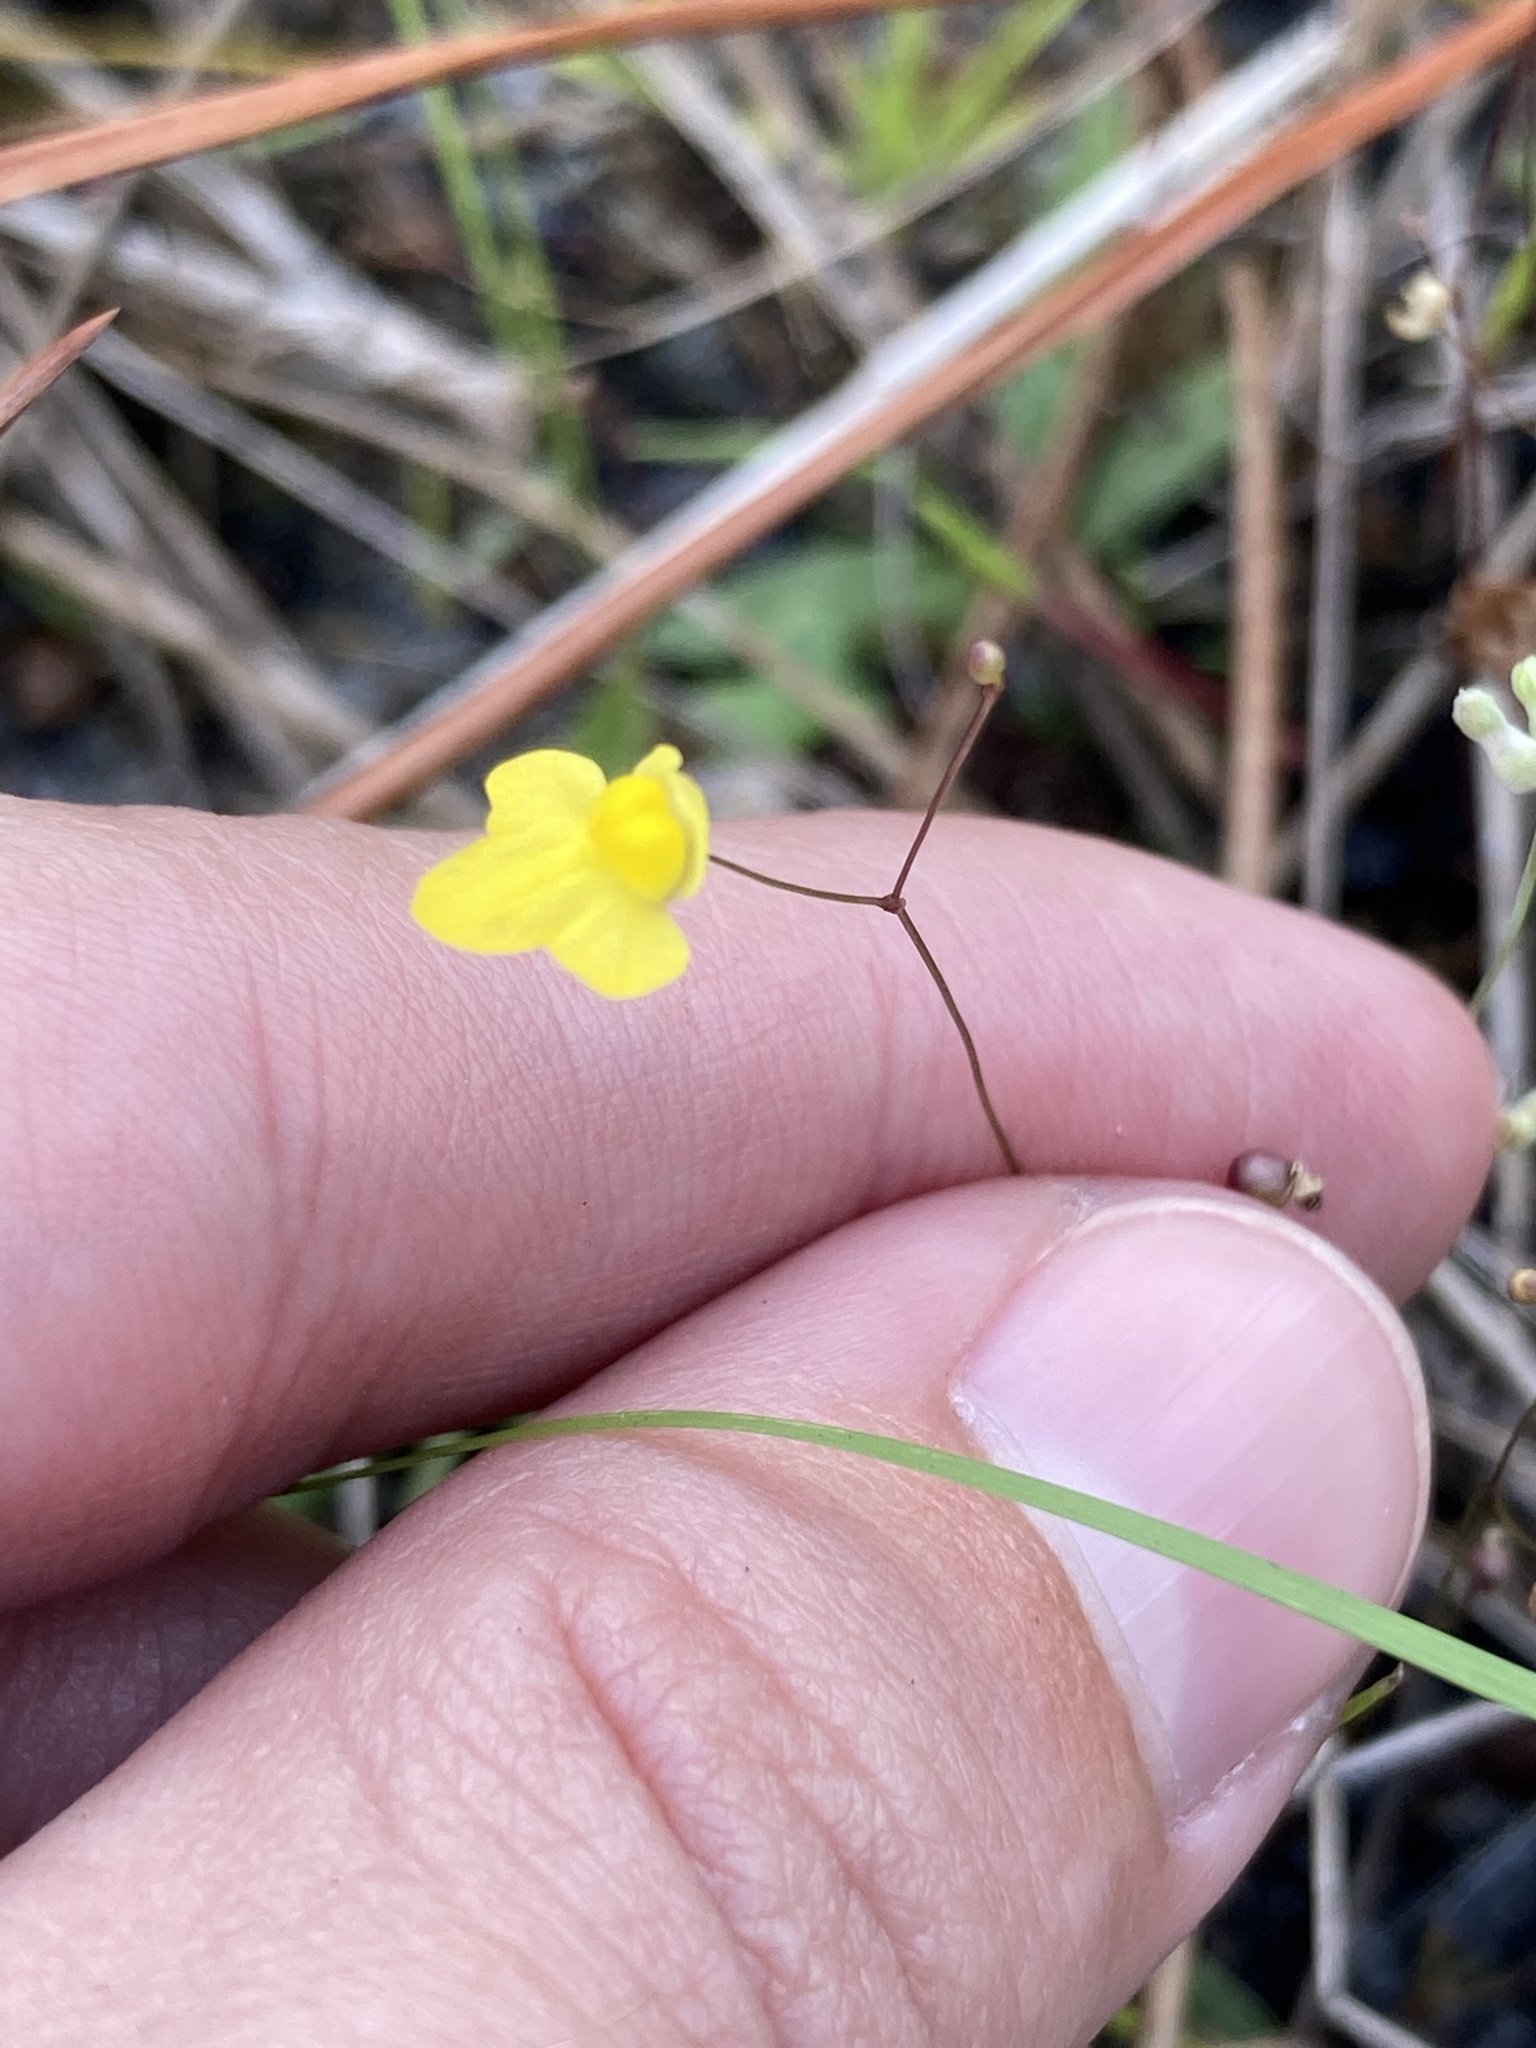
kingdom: Plantae
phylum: Tracheophyta
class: Magnoliopsida
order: Lamiales
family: Lentibulariaceae
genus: Utricularia
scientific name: Utricularia subulata
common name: Tiny bladderwort
